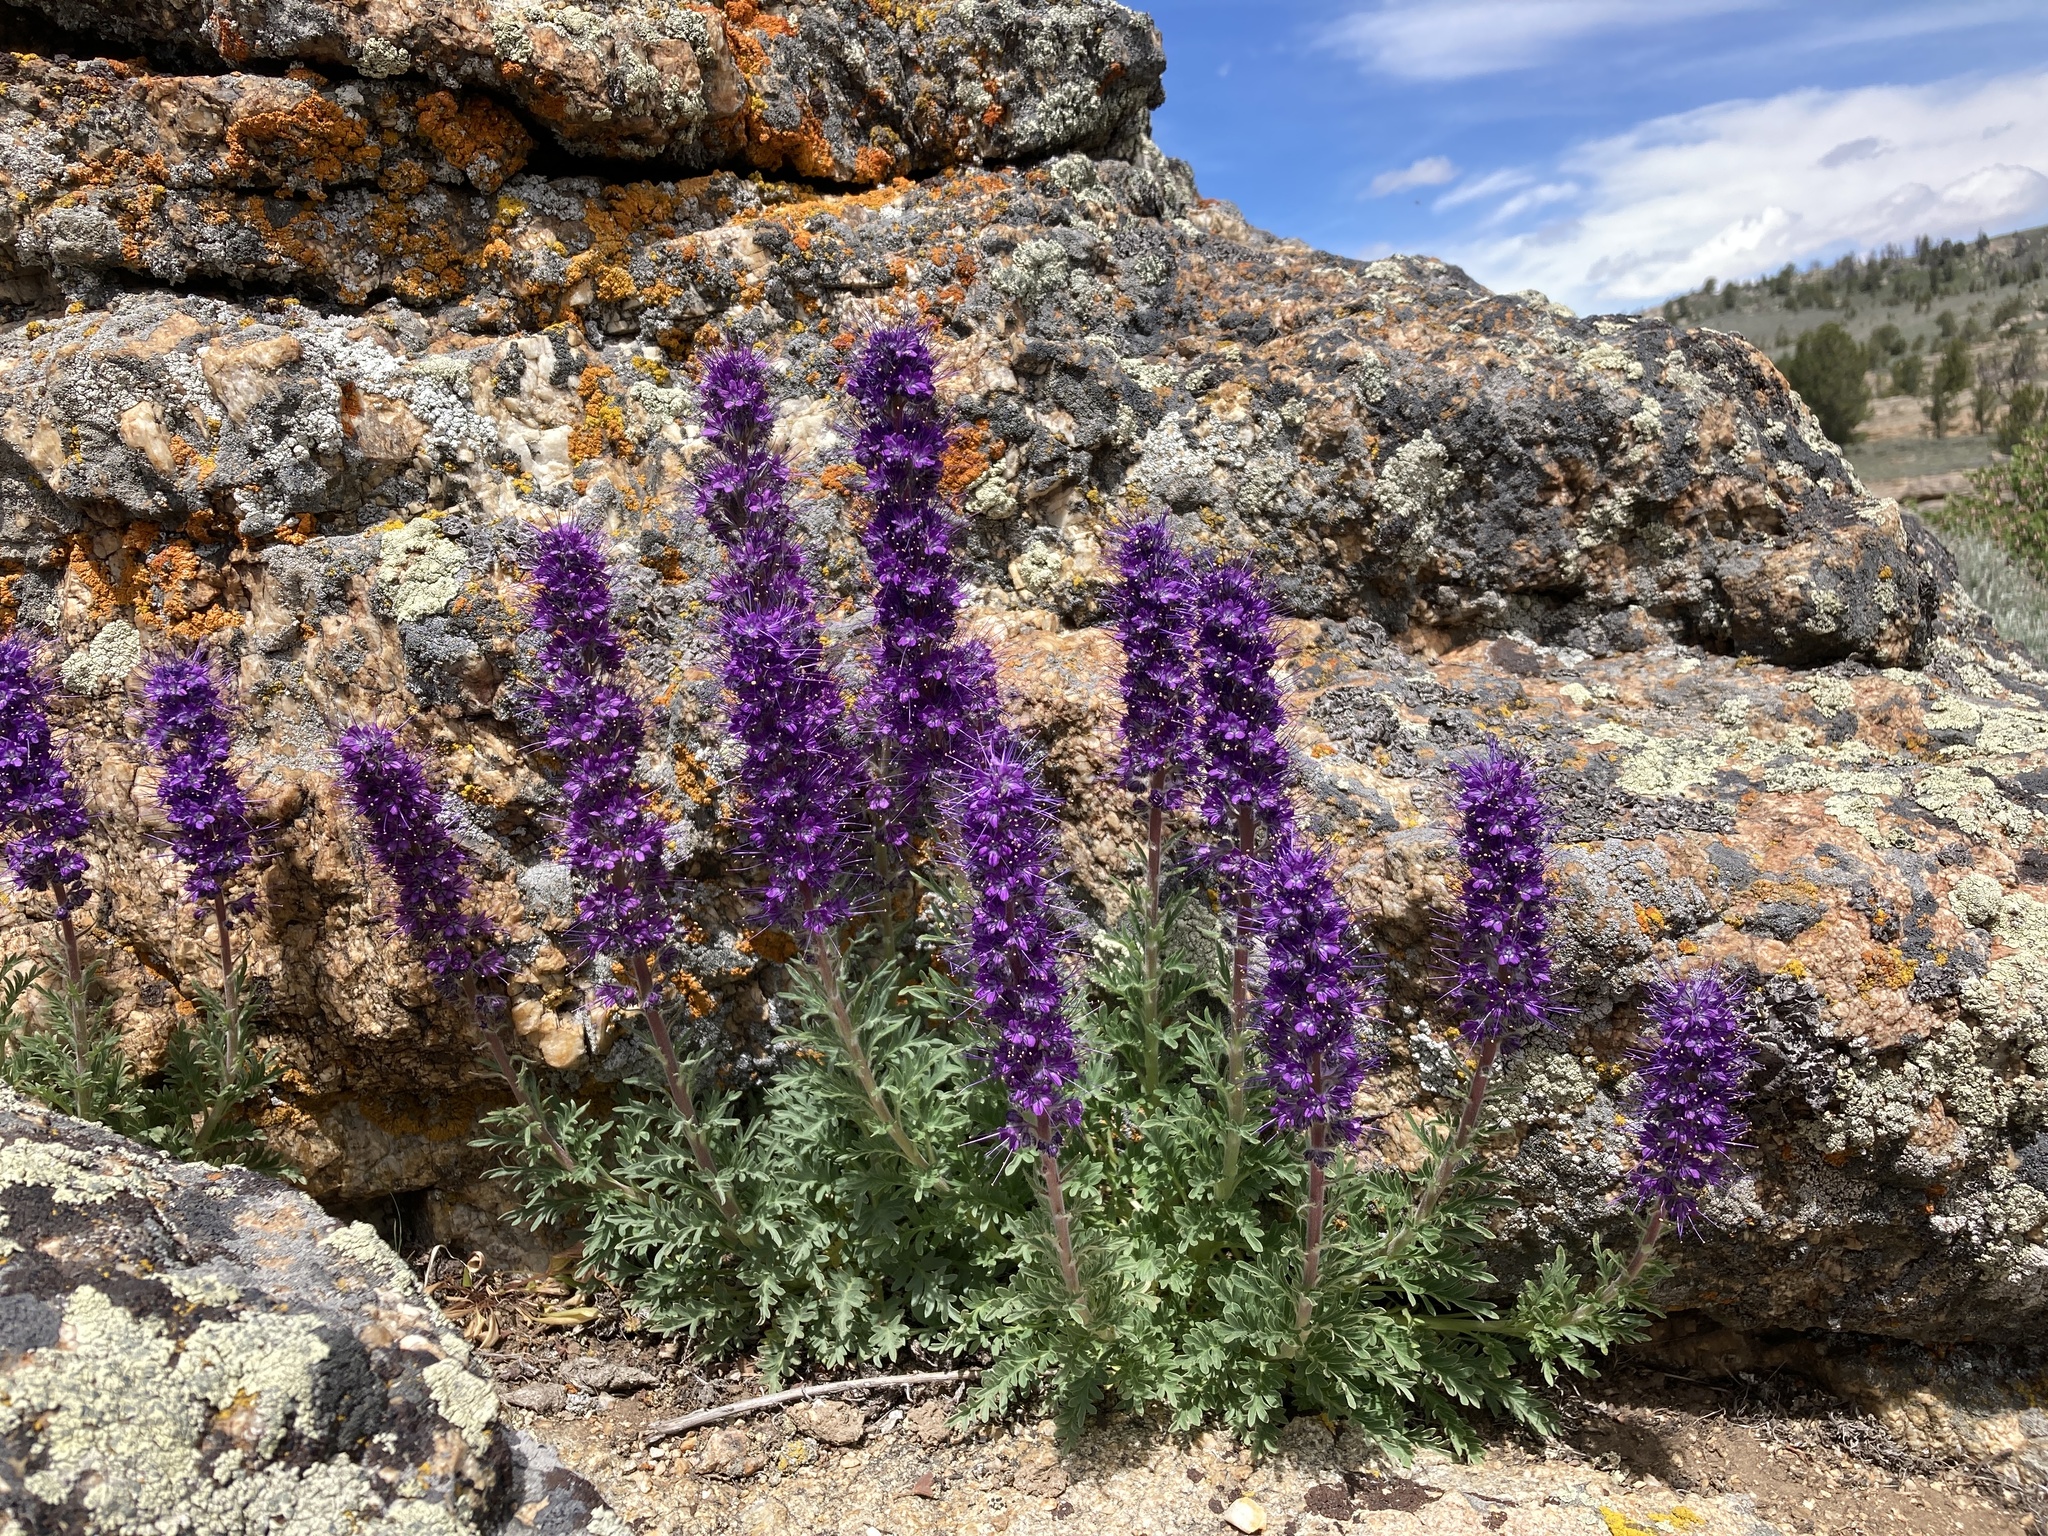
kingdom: Plantae
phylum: Tracheophyta
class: Magnoliopsida
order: Boraginales
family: Hydrophyllaceae
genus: Phacelia
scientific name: Phacelia sericea
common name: Silky phacelia
